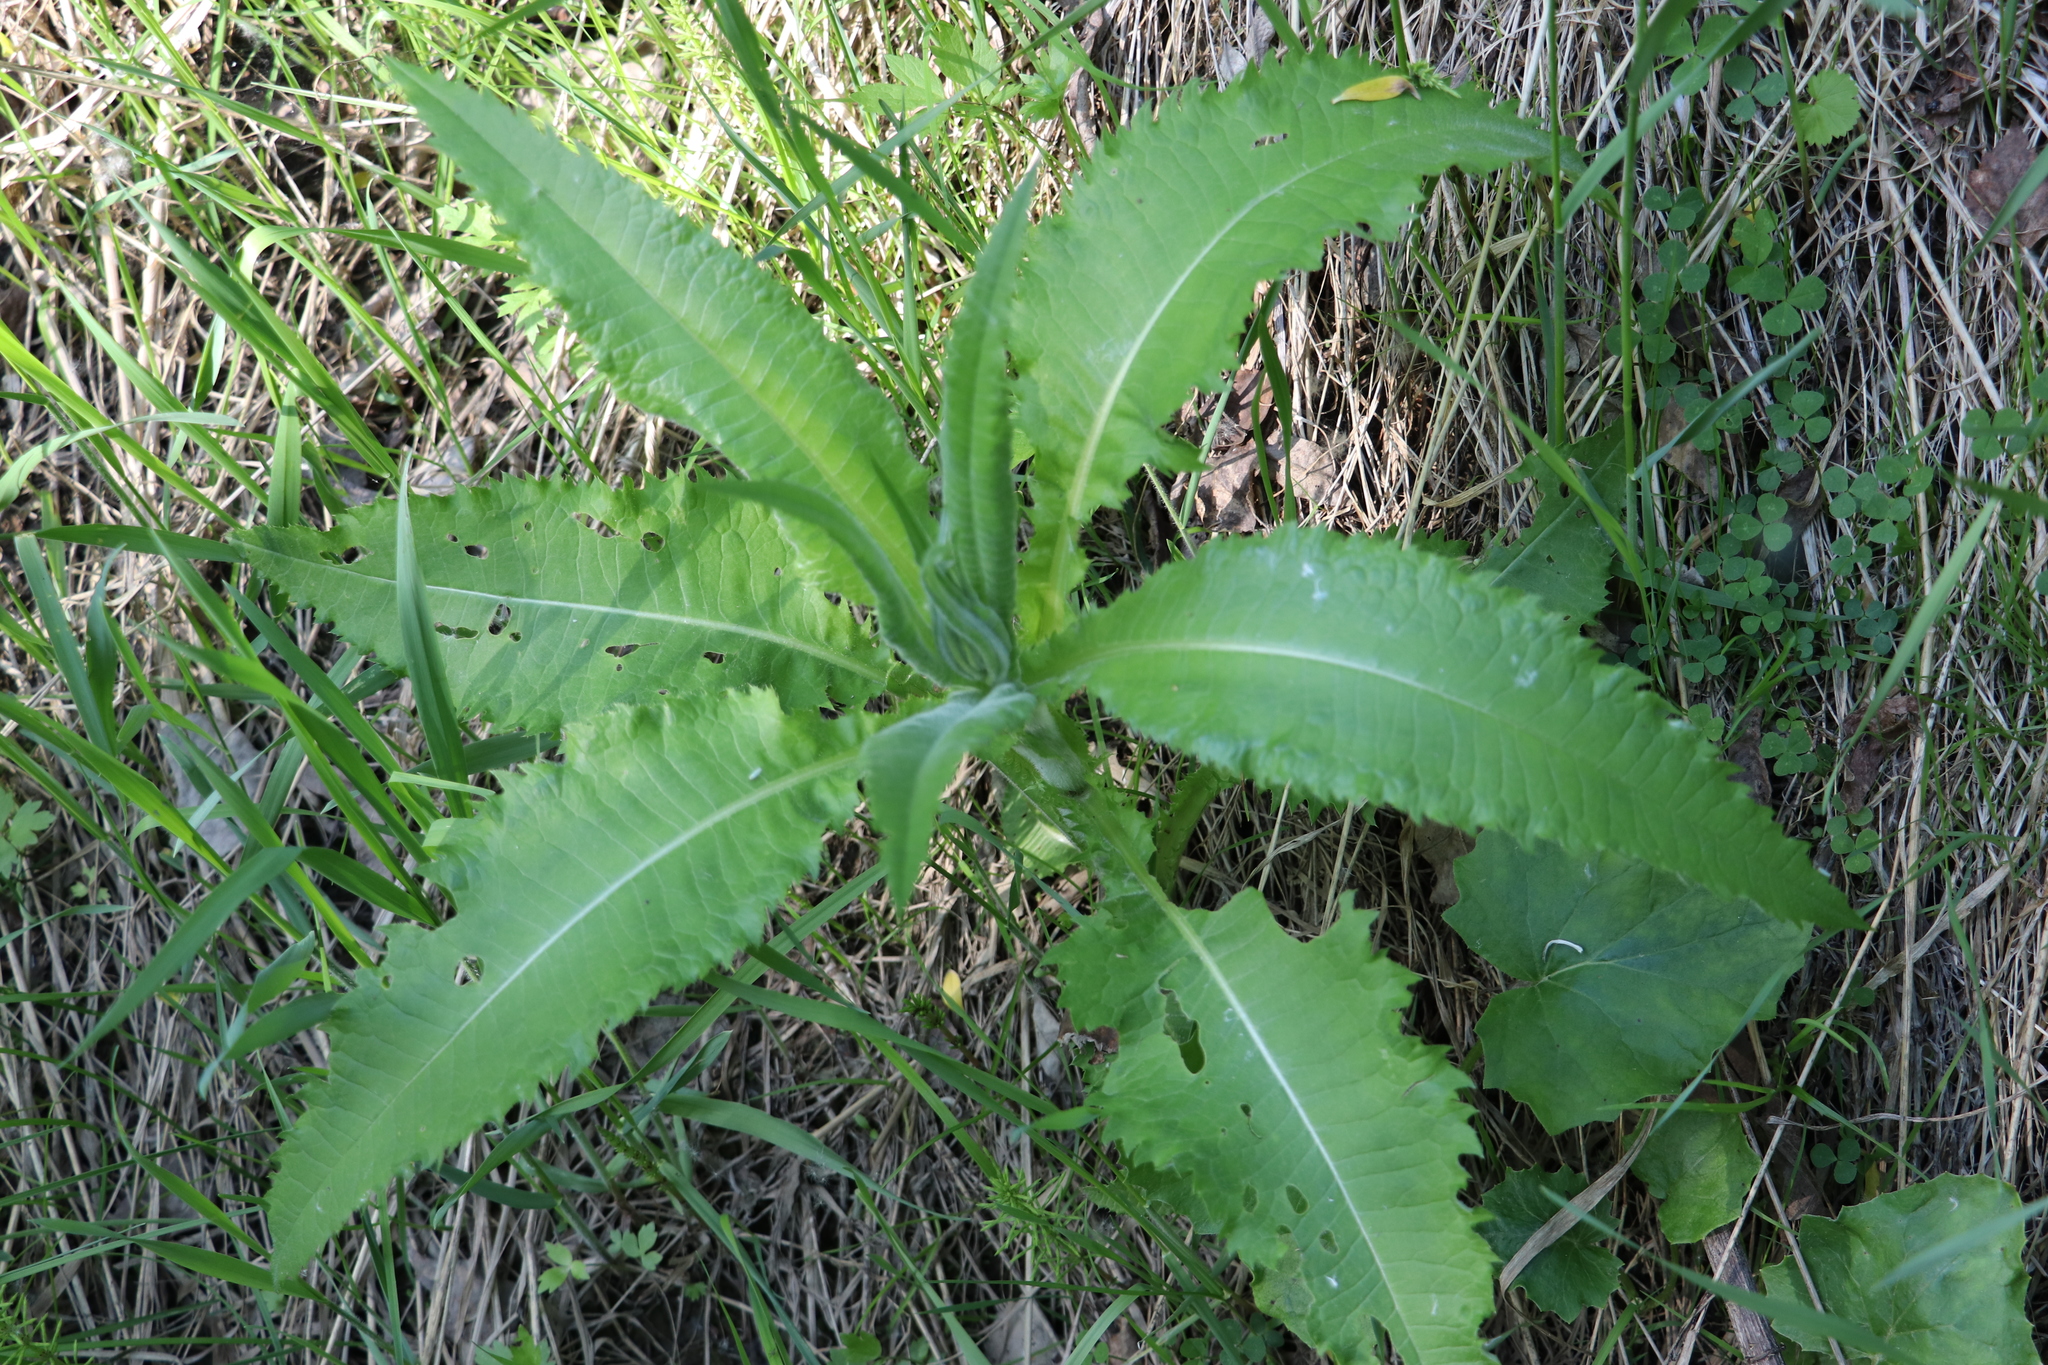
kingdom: Plantae
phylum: Tracheophyta
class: Magnoliopsida
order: Asterales
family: Asteraceae
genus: Cirsium
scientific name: Cirsium heterophyllum
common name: Melancholy thistle
